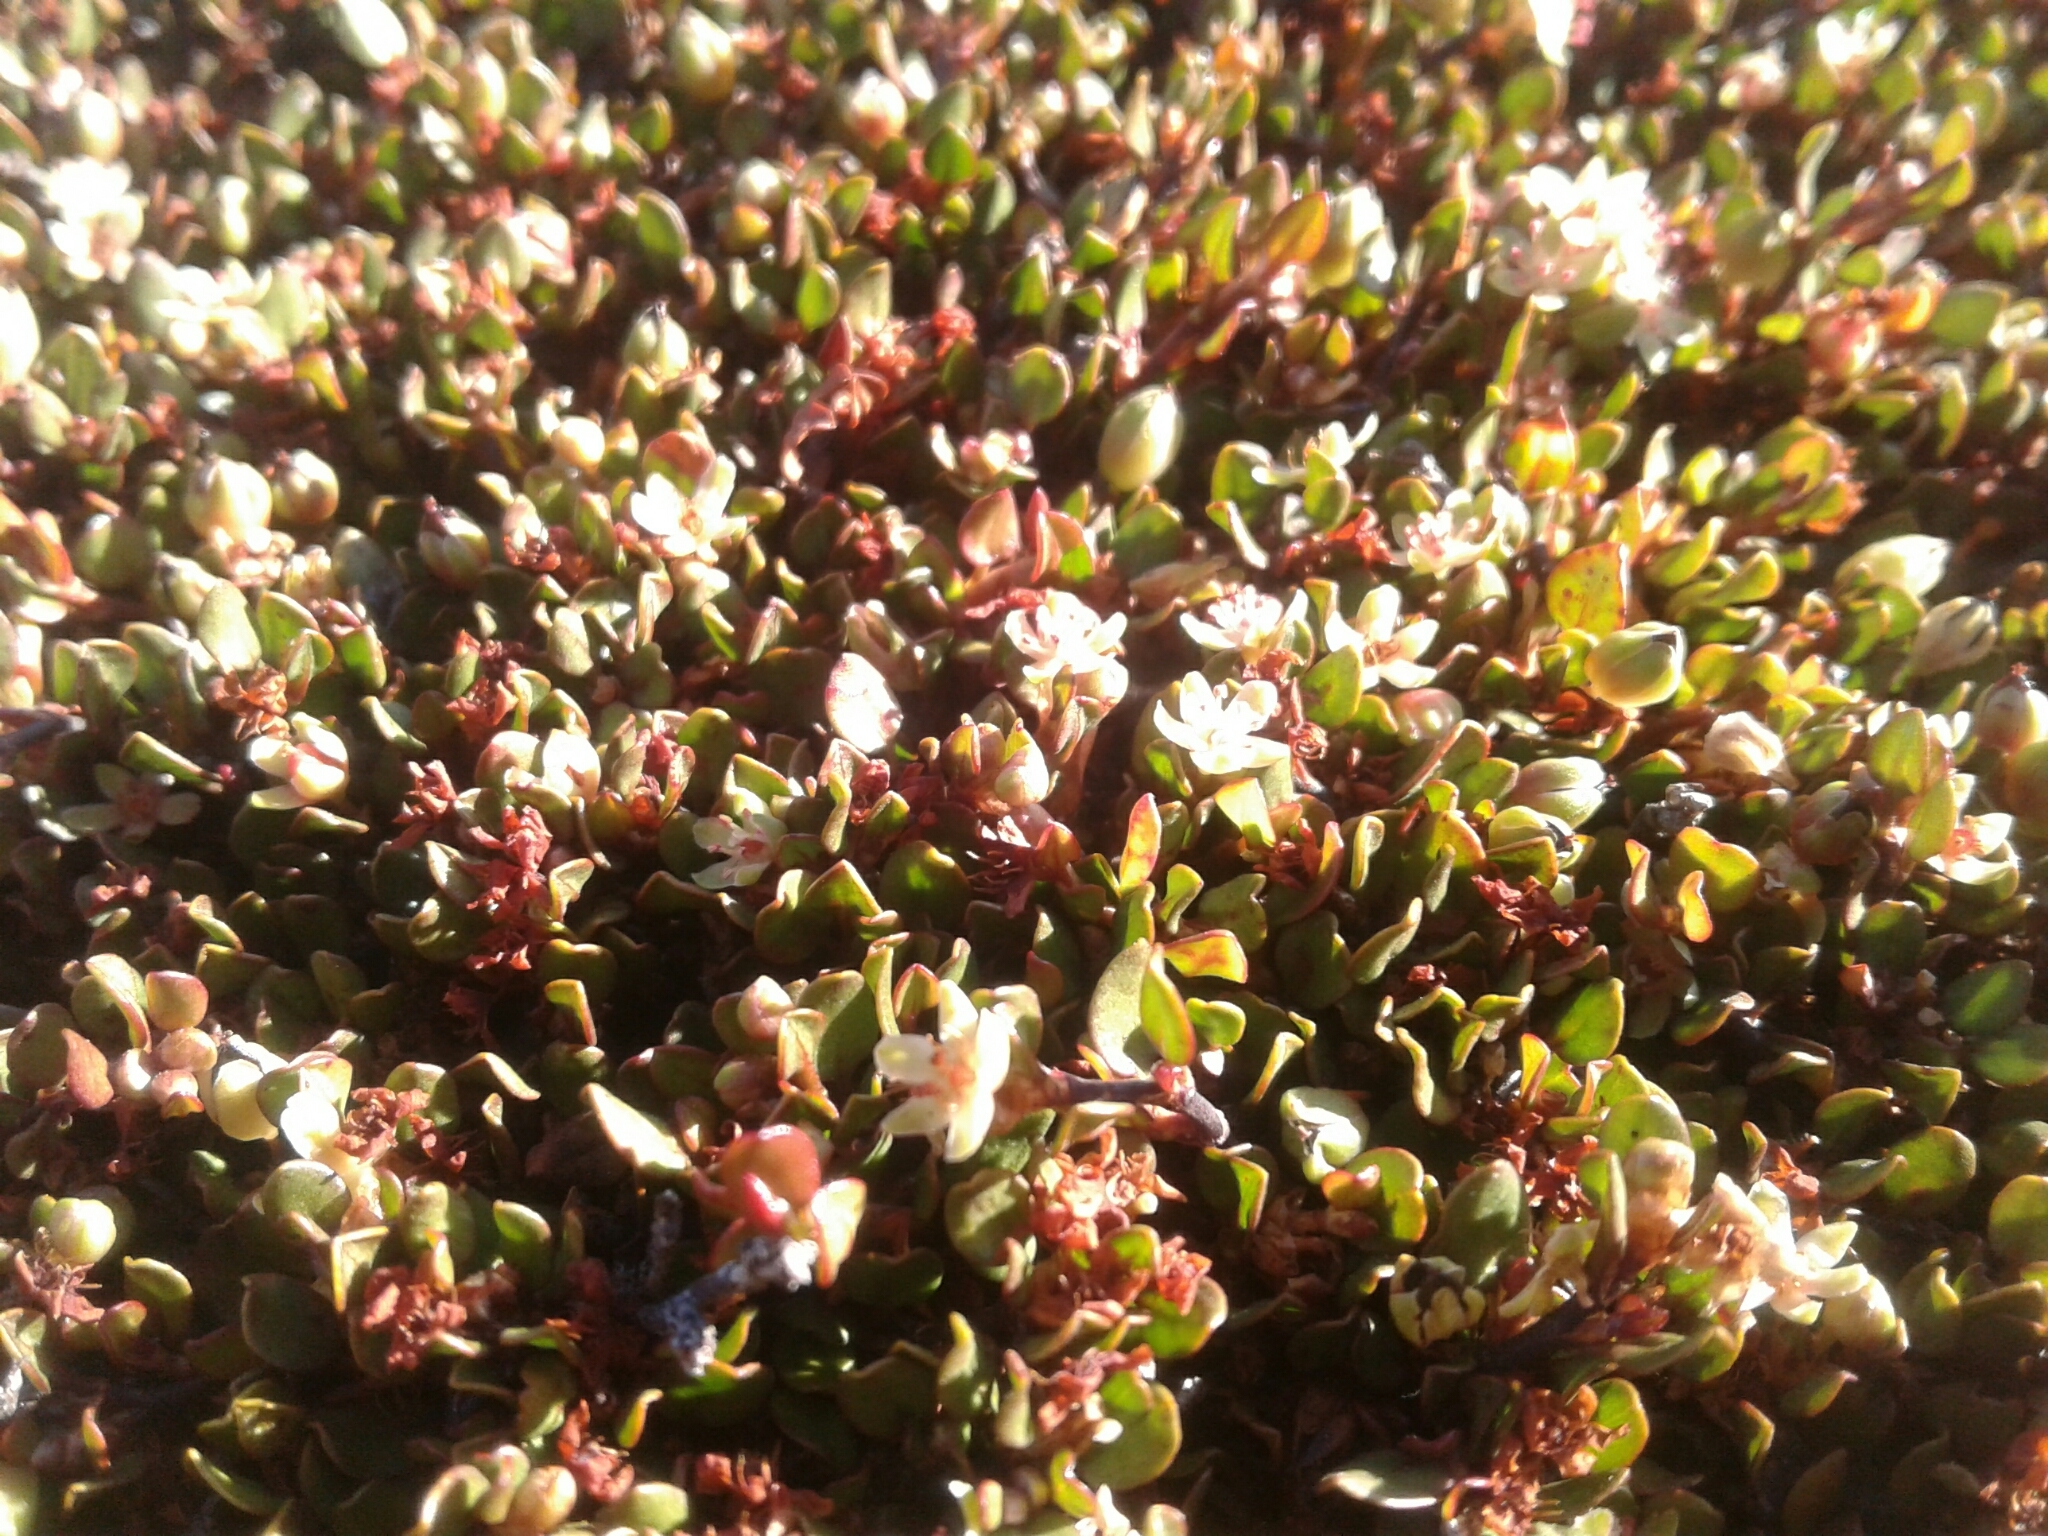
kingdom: Plantae
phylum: Tracheophyta
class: Magnoliopsida
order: Caryophyllales
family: Polygonaceae
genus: Muehlenbeckia
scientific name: Muehlenbeckia axillaris
